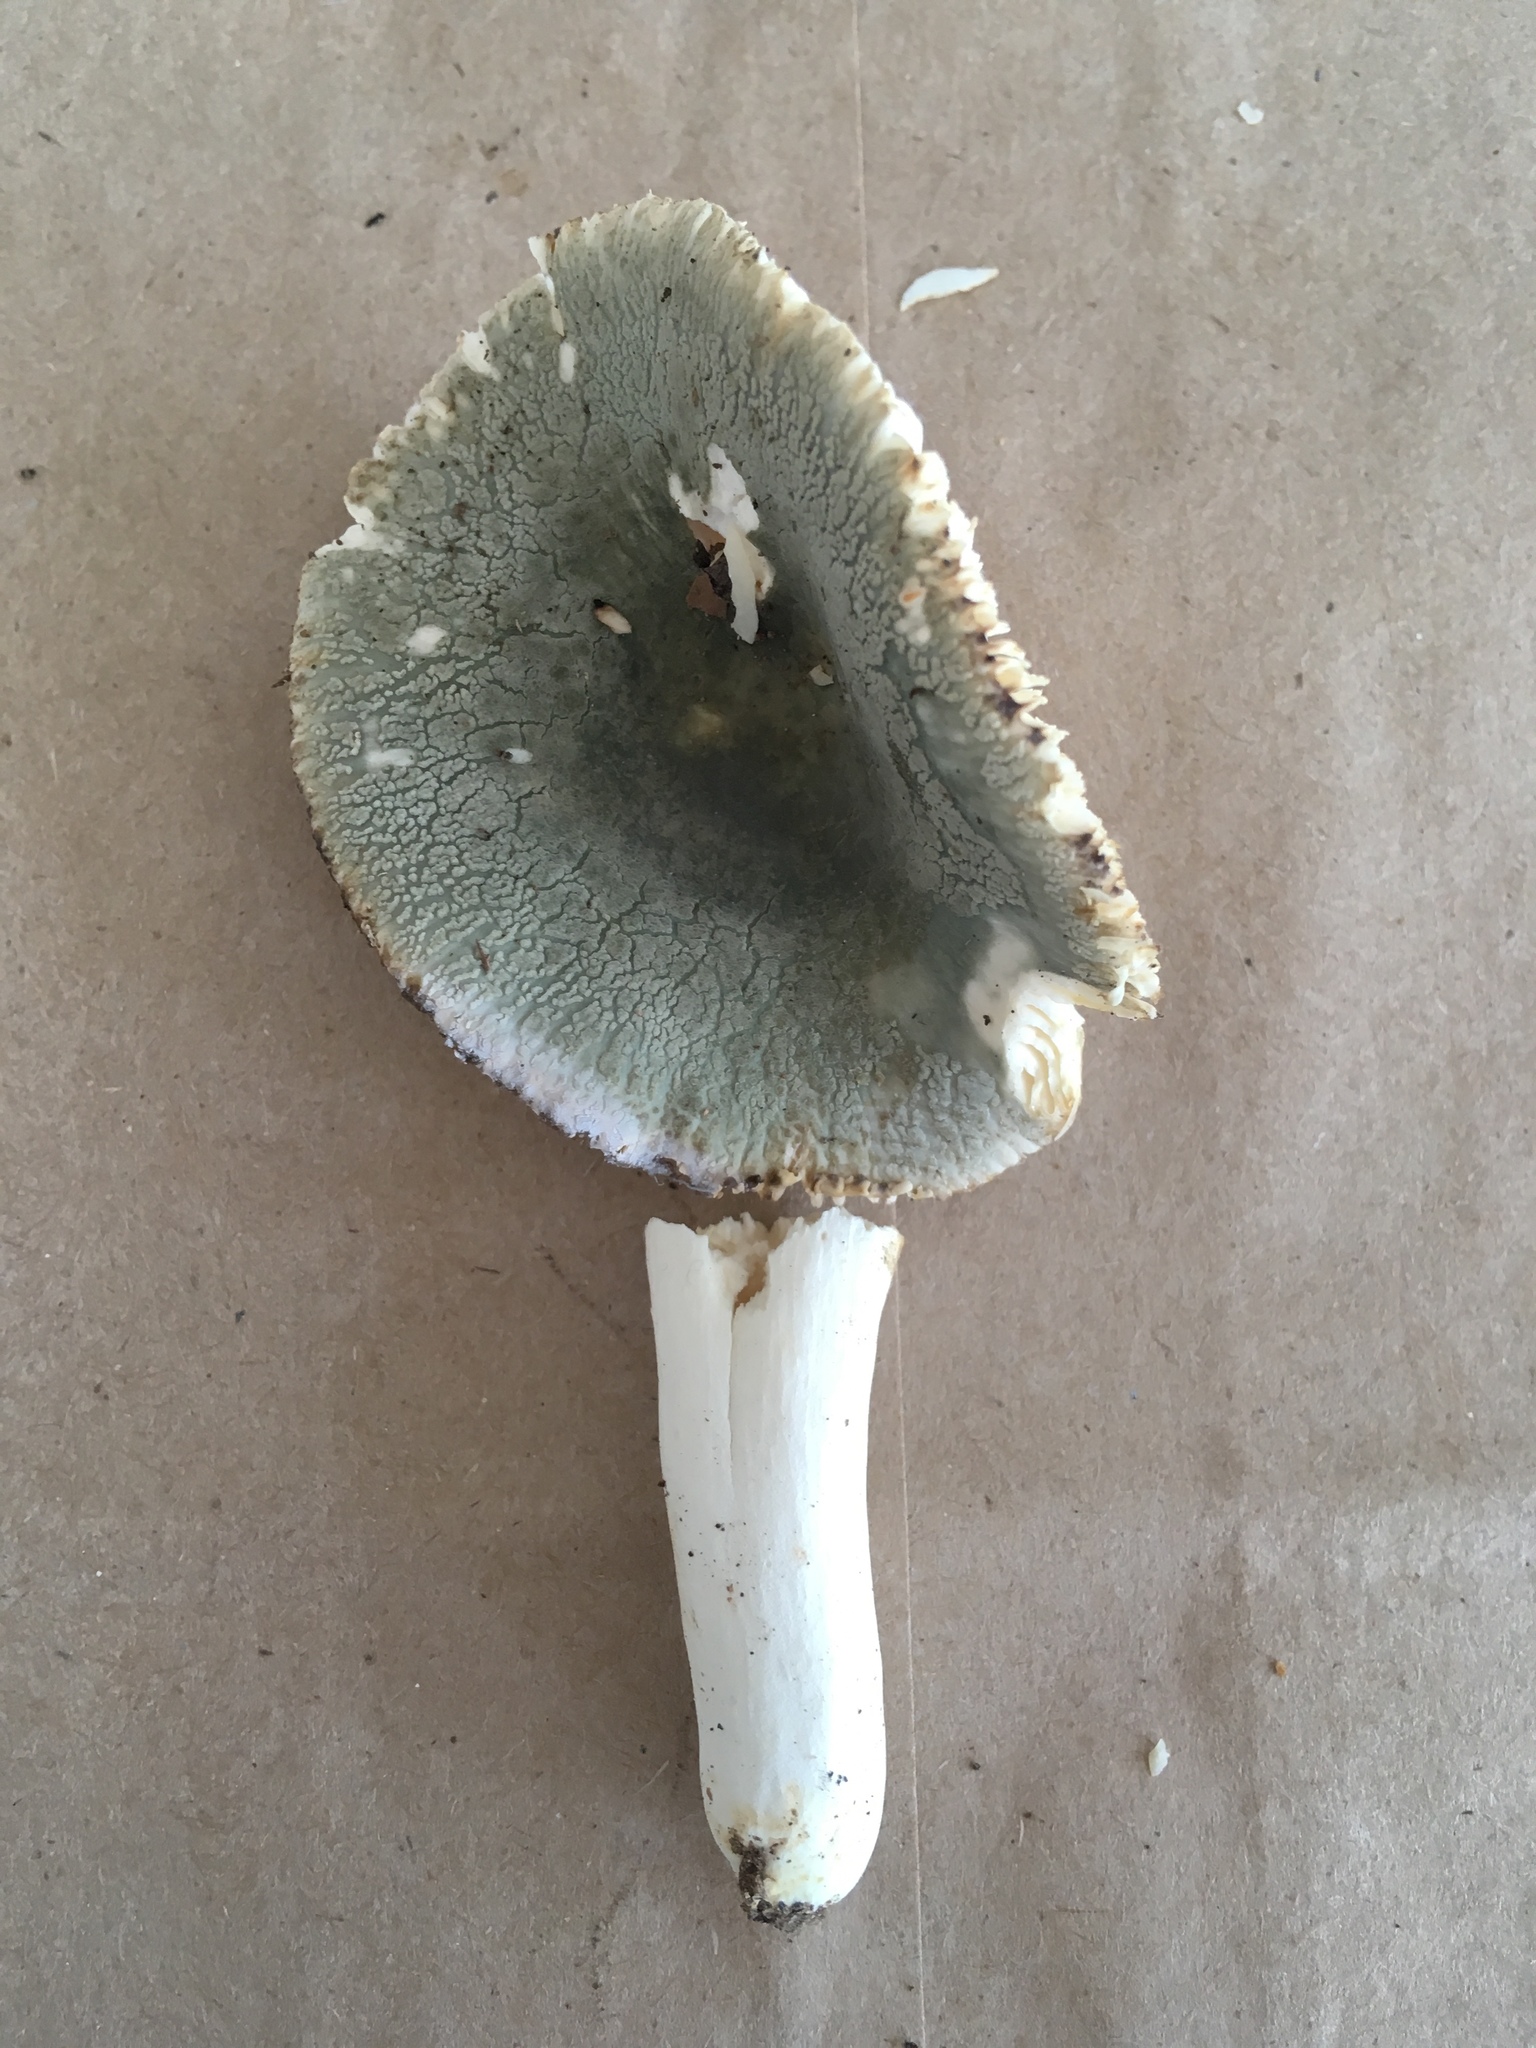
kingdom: Fungi
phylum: Basidiomycota
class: Agaricomycetes
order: Russulales
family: Russulaceae
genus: Russula
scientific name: Russula crustosa
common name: Green quilt russula
